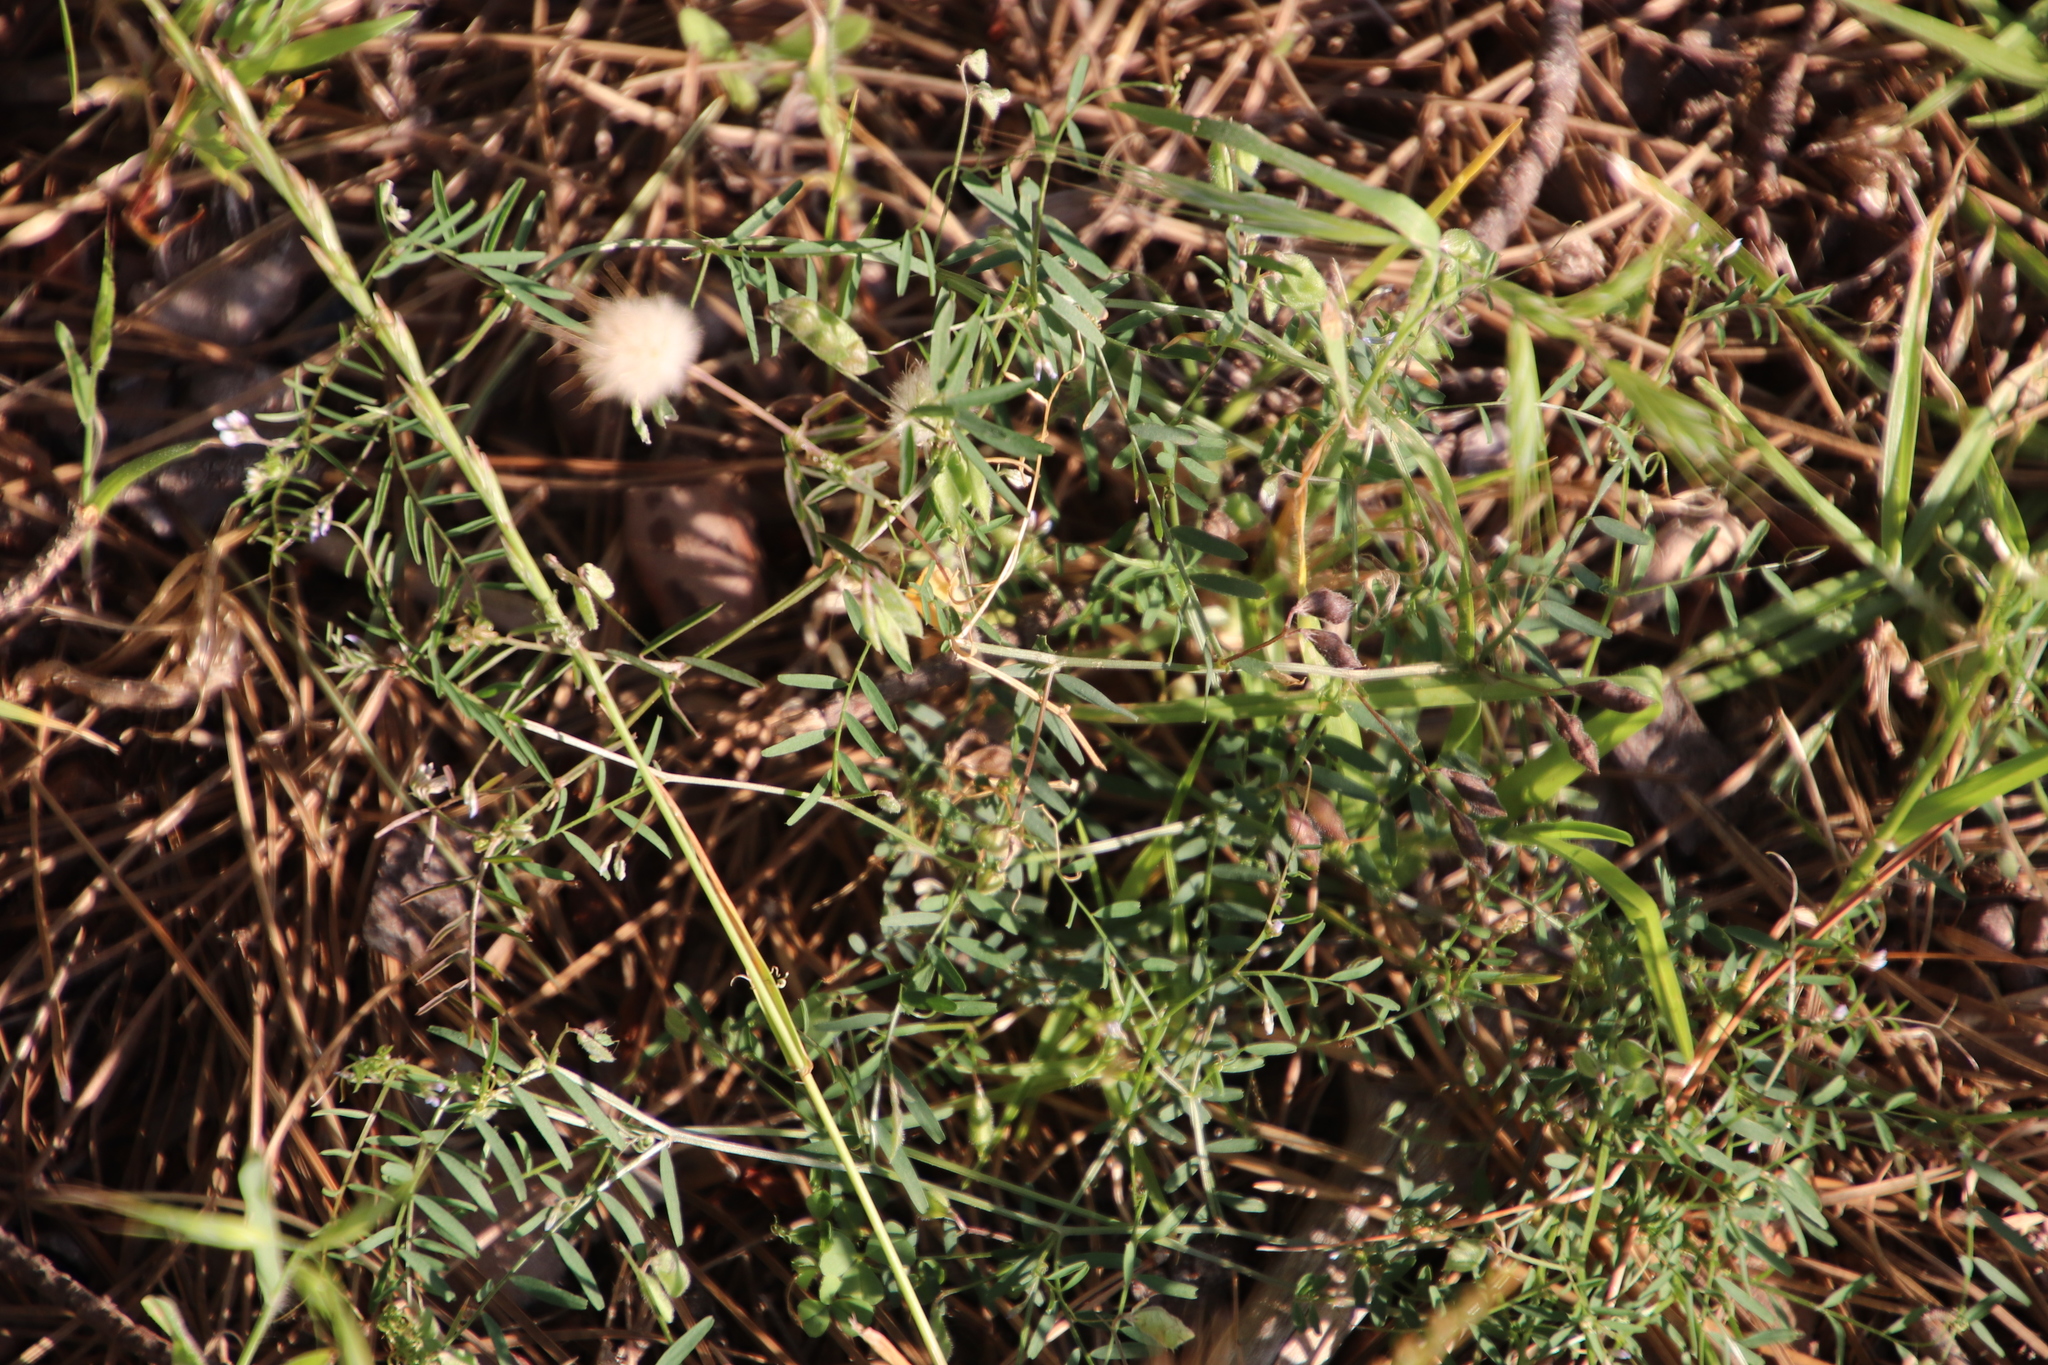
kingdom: Plantae
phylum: Tracheophyta
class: Magnoliopsida
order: Fabales
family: Fabaceae
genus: Vicia
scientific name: Vicia hirsuta
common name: Tiny vetch
